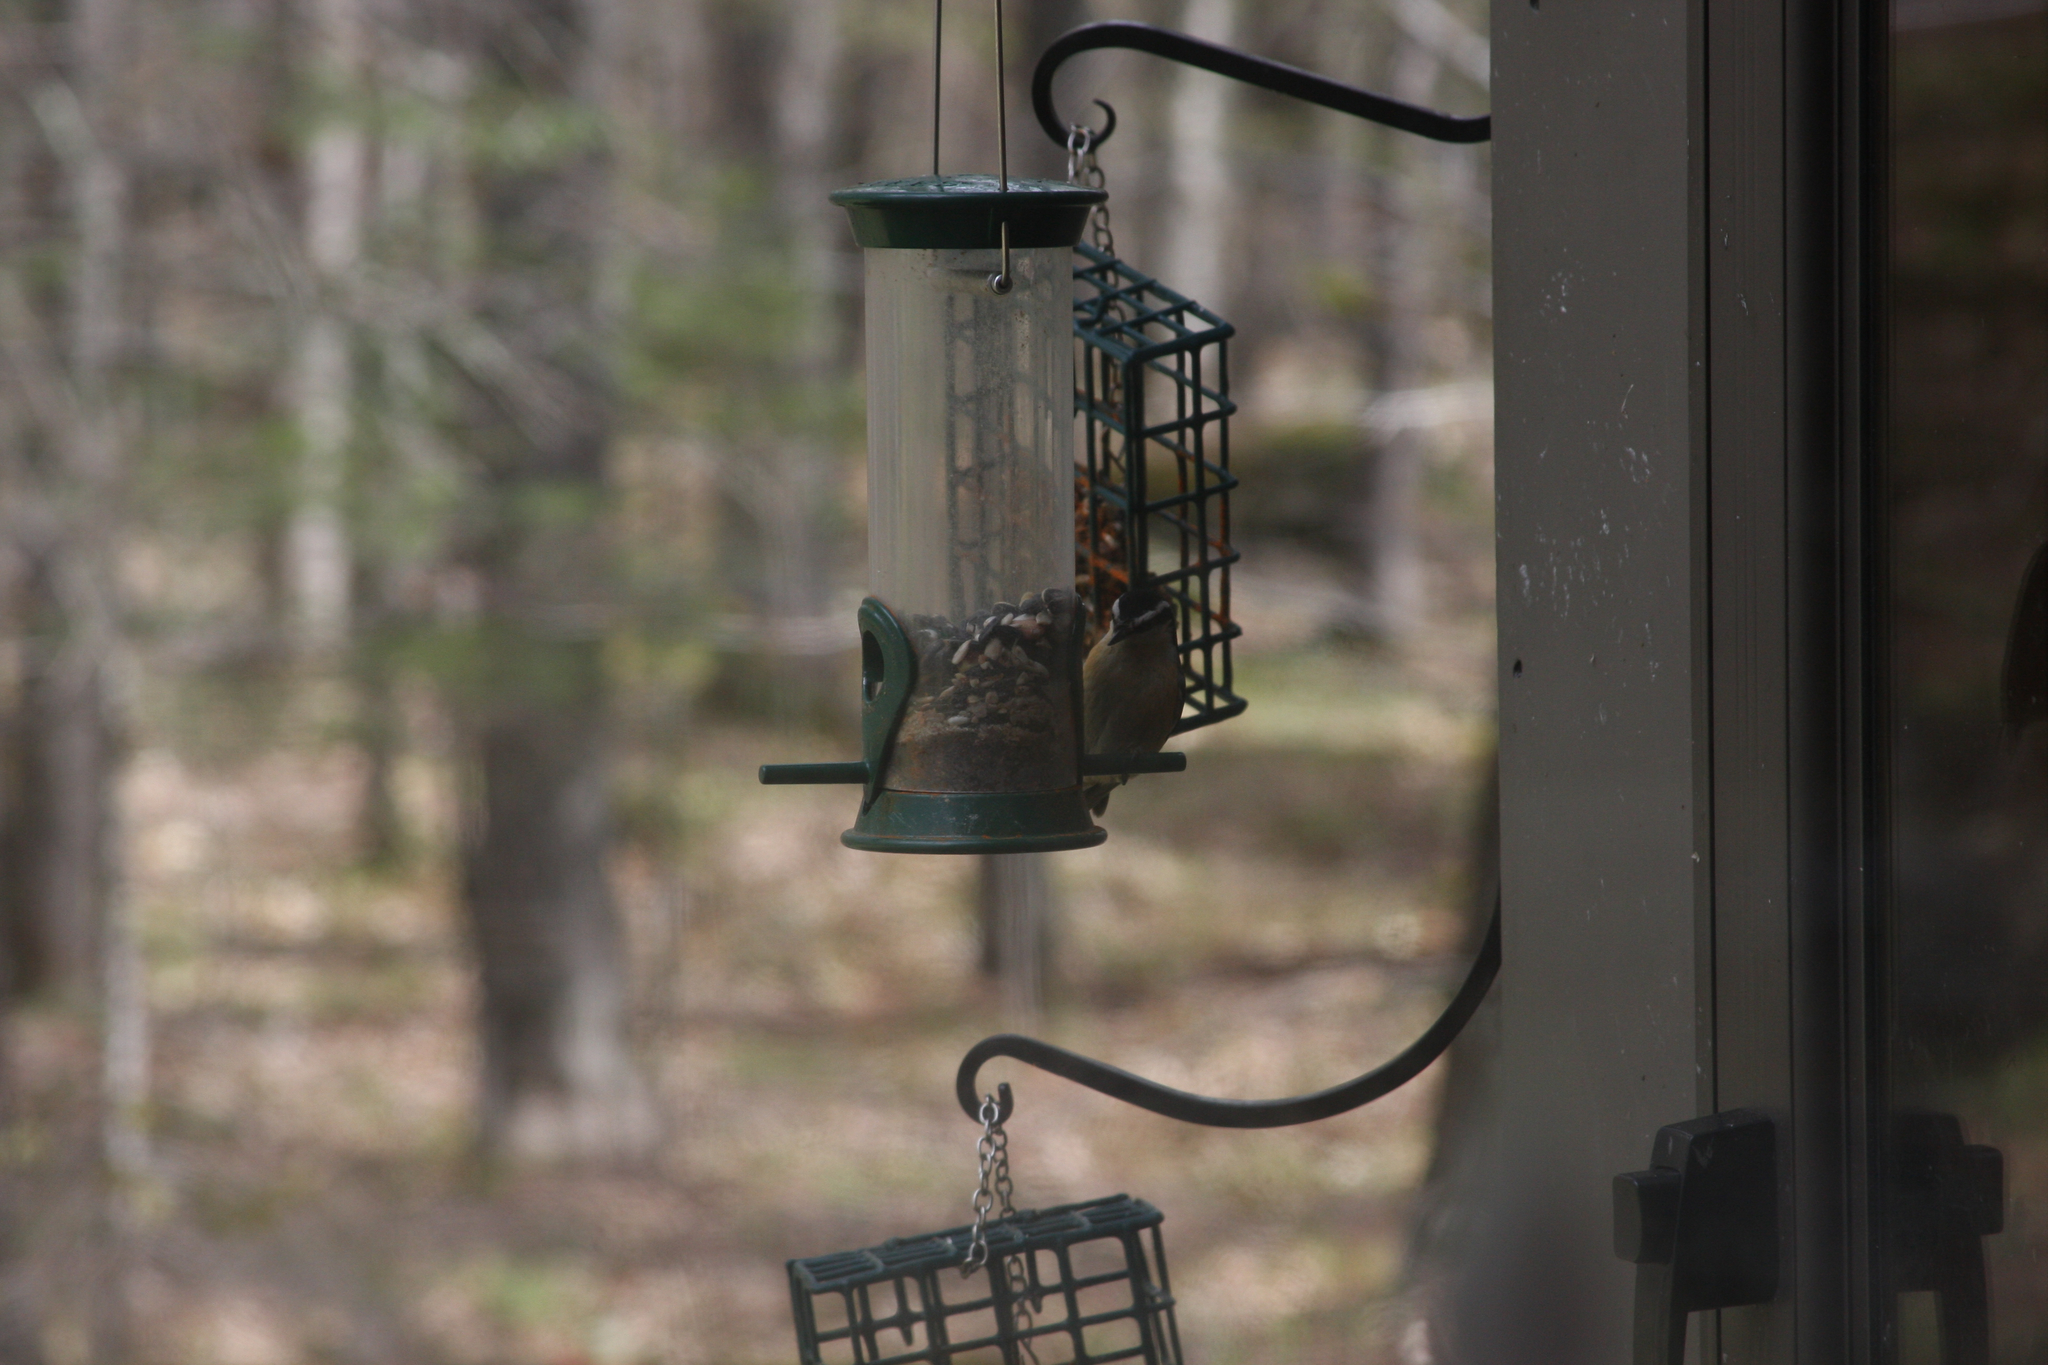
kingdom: Animalia
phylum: Chordata
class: Aves
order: Passeriformes
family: Sittidae
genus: Sitta
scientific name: Sitta canadensis
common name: Red-breasted nuthatch
